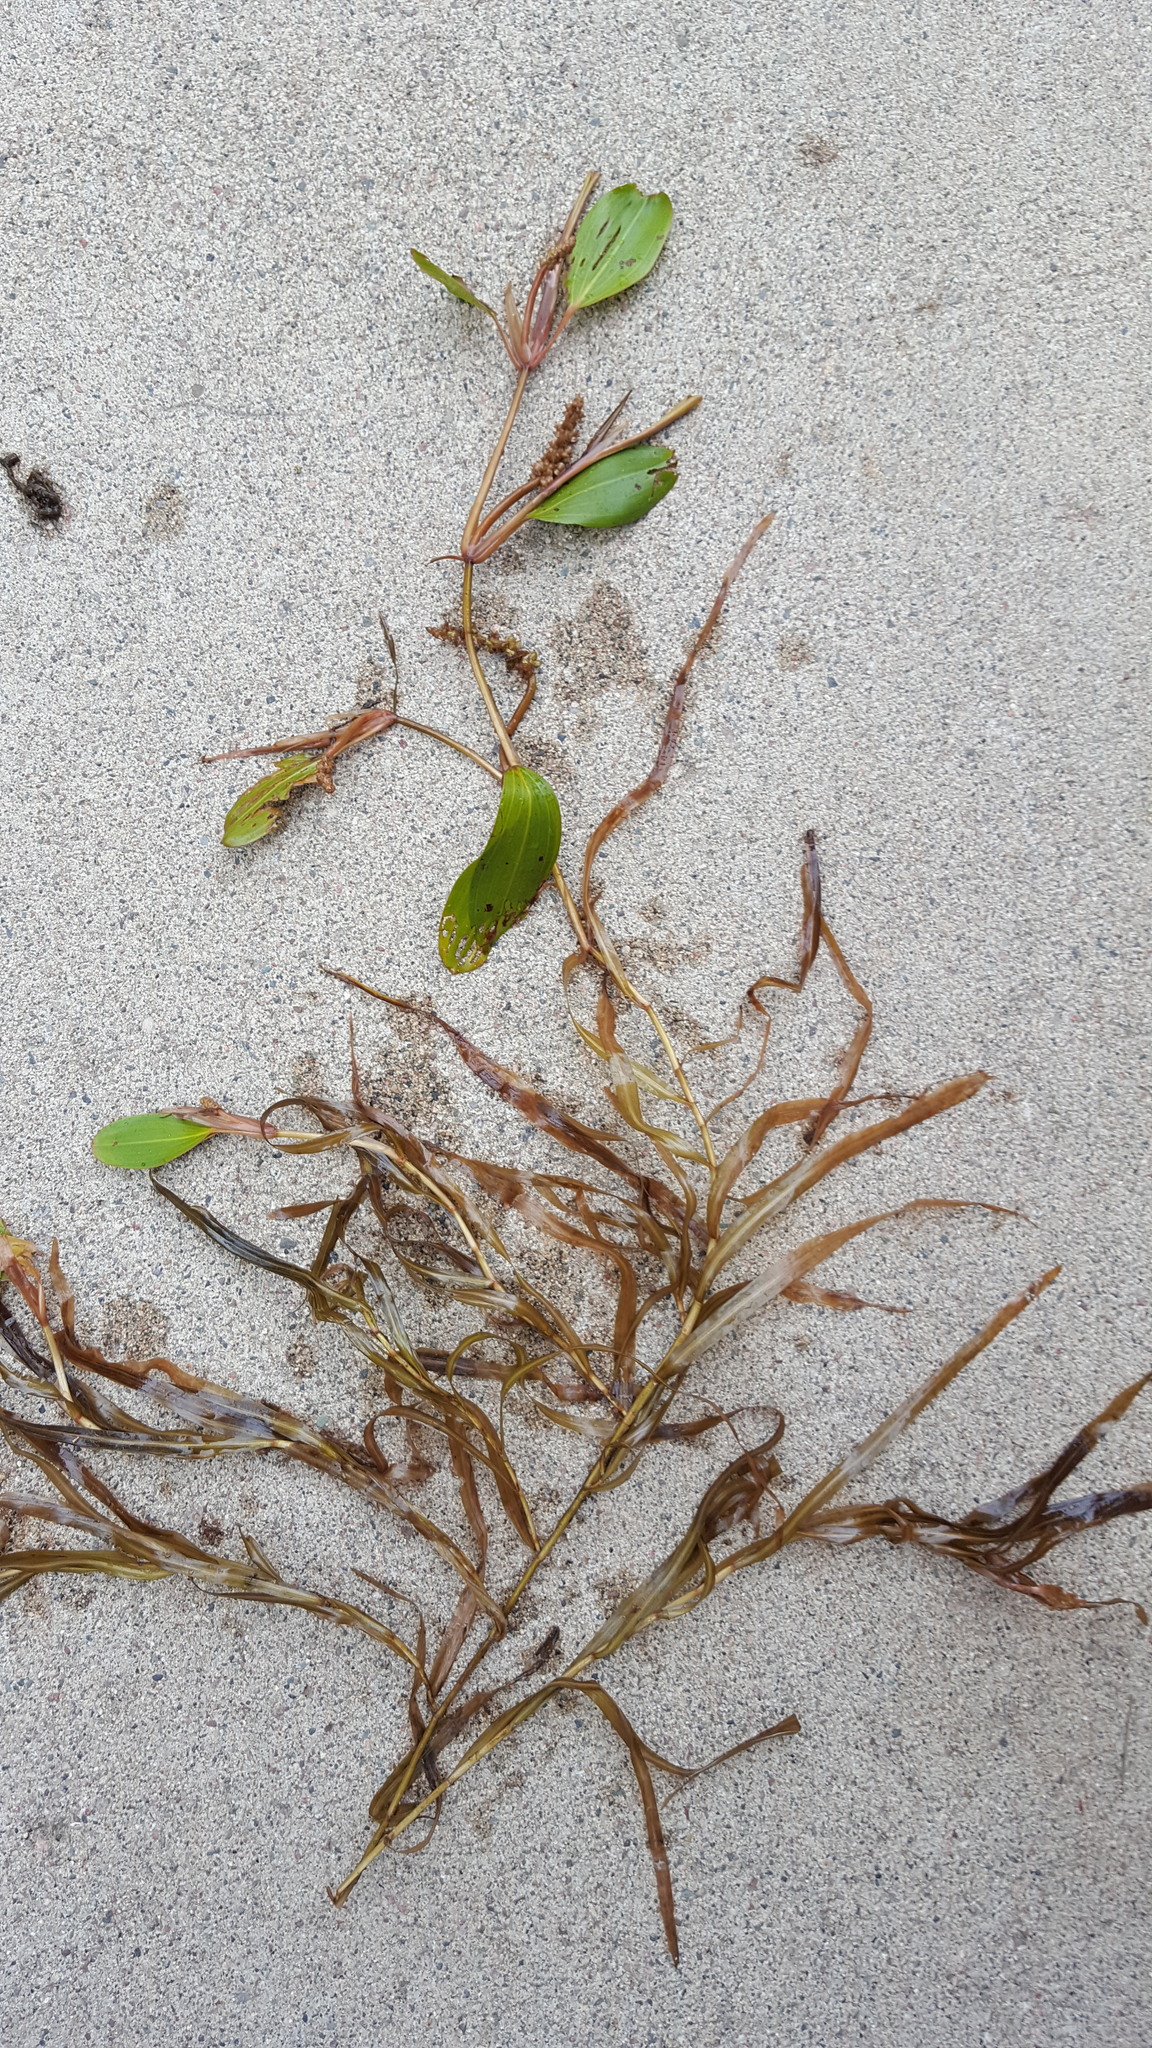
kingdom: Plantae
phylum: Tracheophyta
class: Liliopsida
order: Alismatales
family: Potamogetonaceae
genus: Potamogeton
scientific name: Potamogeton epihydrus
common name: American pondweed
